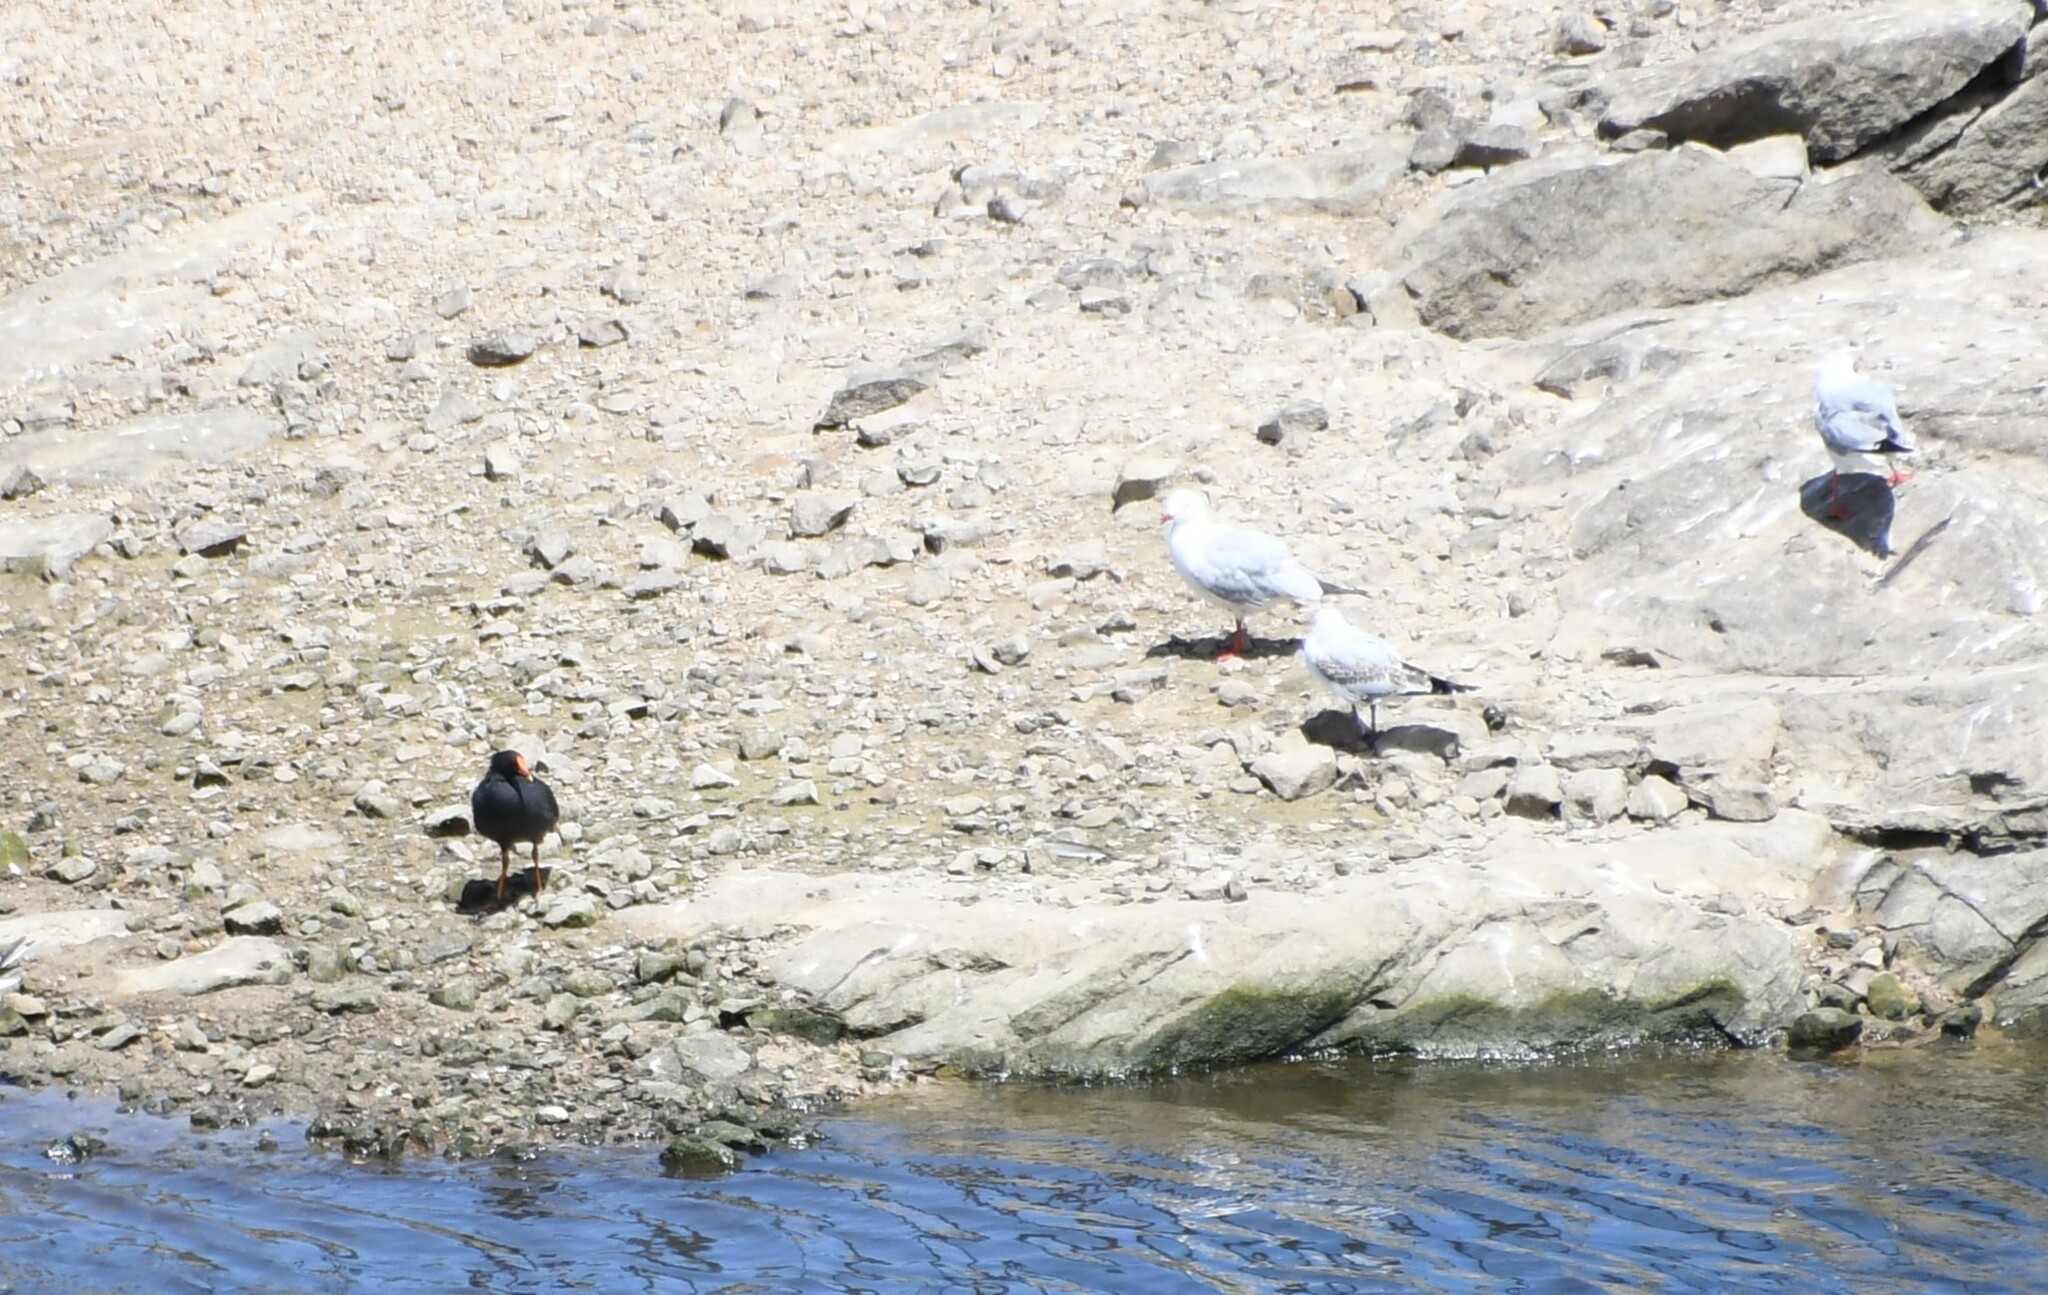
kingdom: Animalia
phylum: Chordata
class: Aves
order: Charadriiformes
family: Laridae
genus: Chroicocephalus
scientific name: Chroicocephalus novaehollandiae
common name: Silver gull
